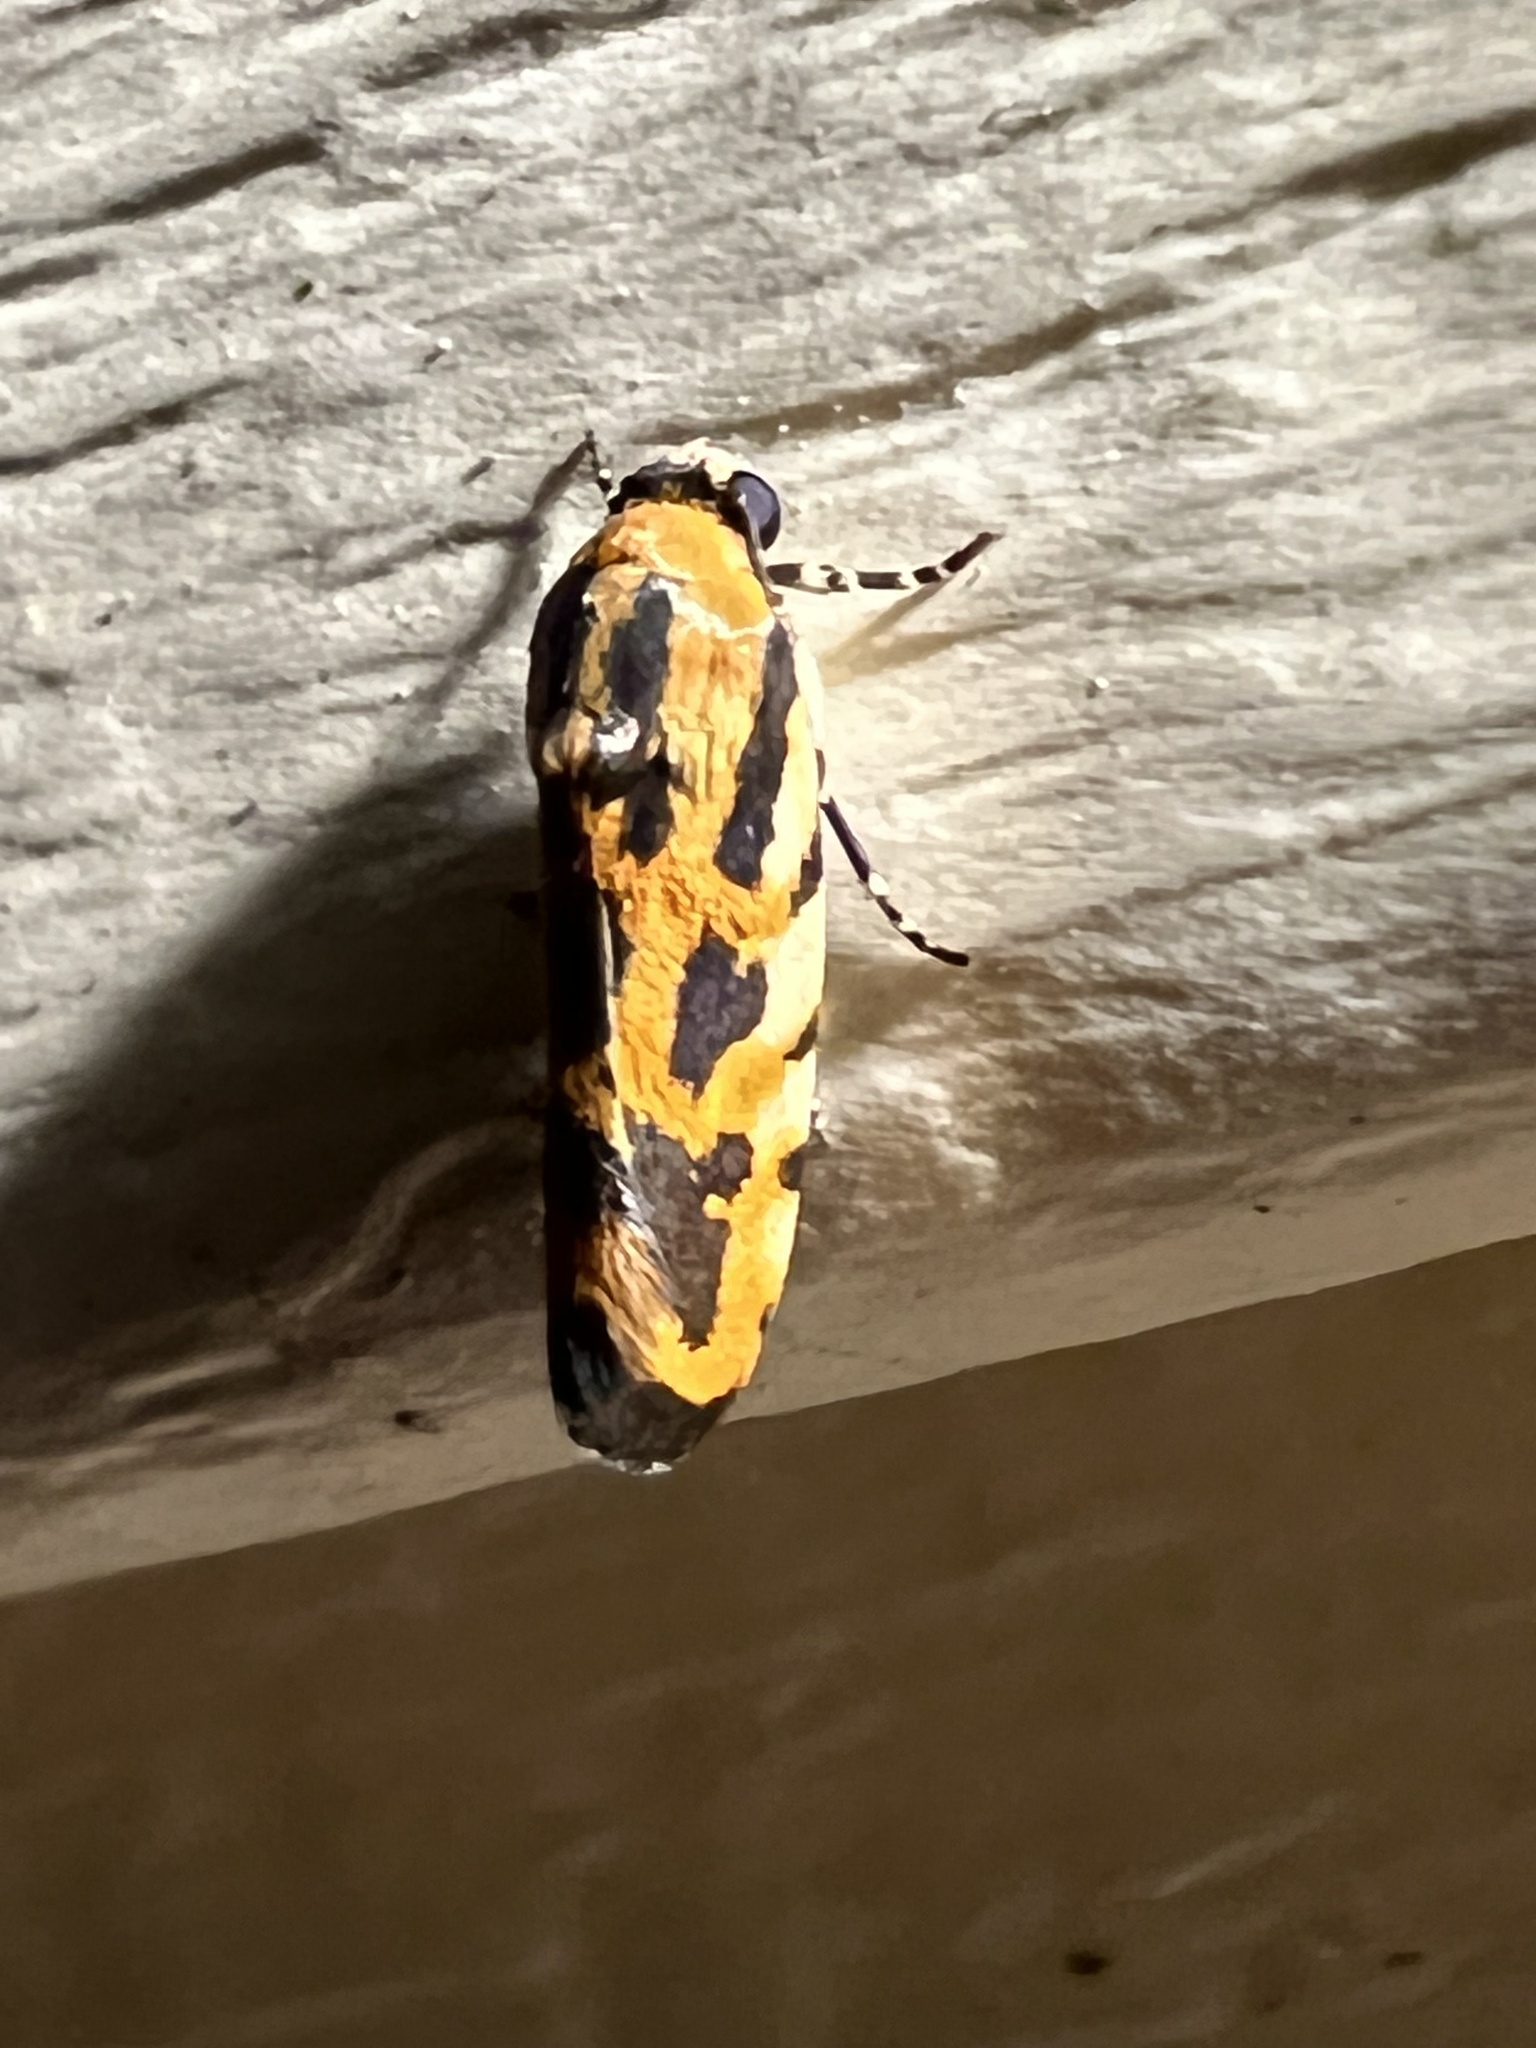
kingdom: Animalia
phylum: Arthropoda
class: Insecta
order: Lepidoptera
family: Noctuidae
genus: Acontia
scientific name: Acontia leo
